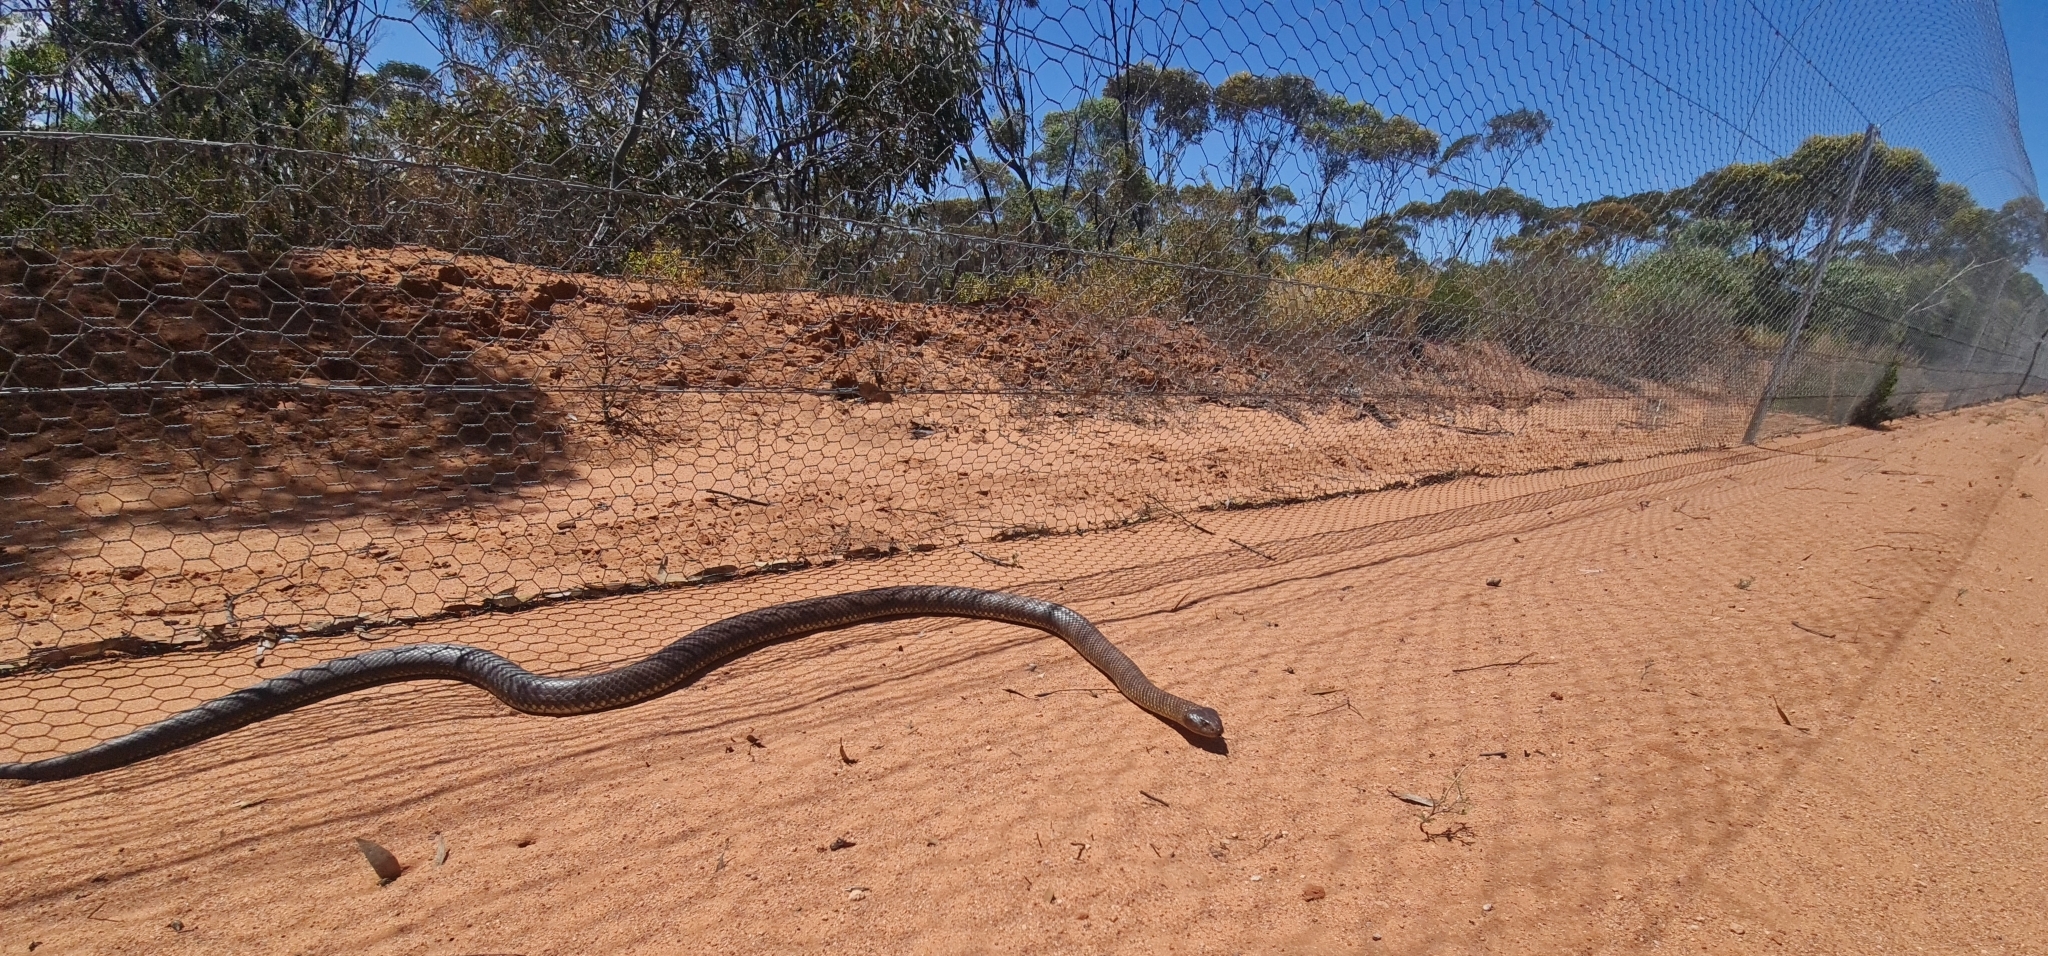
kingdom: Animalia
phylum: Chordata
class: Squamata
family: Elapidae
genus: Pseudechis
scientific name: Pseudechis australis
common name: King brown snake
